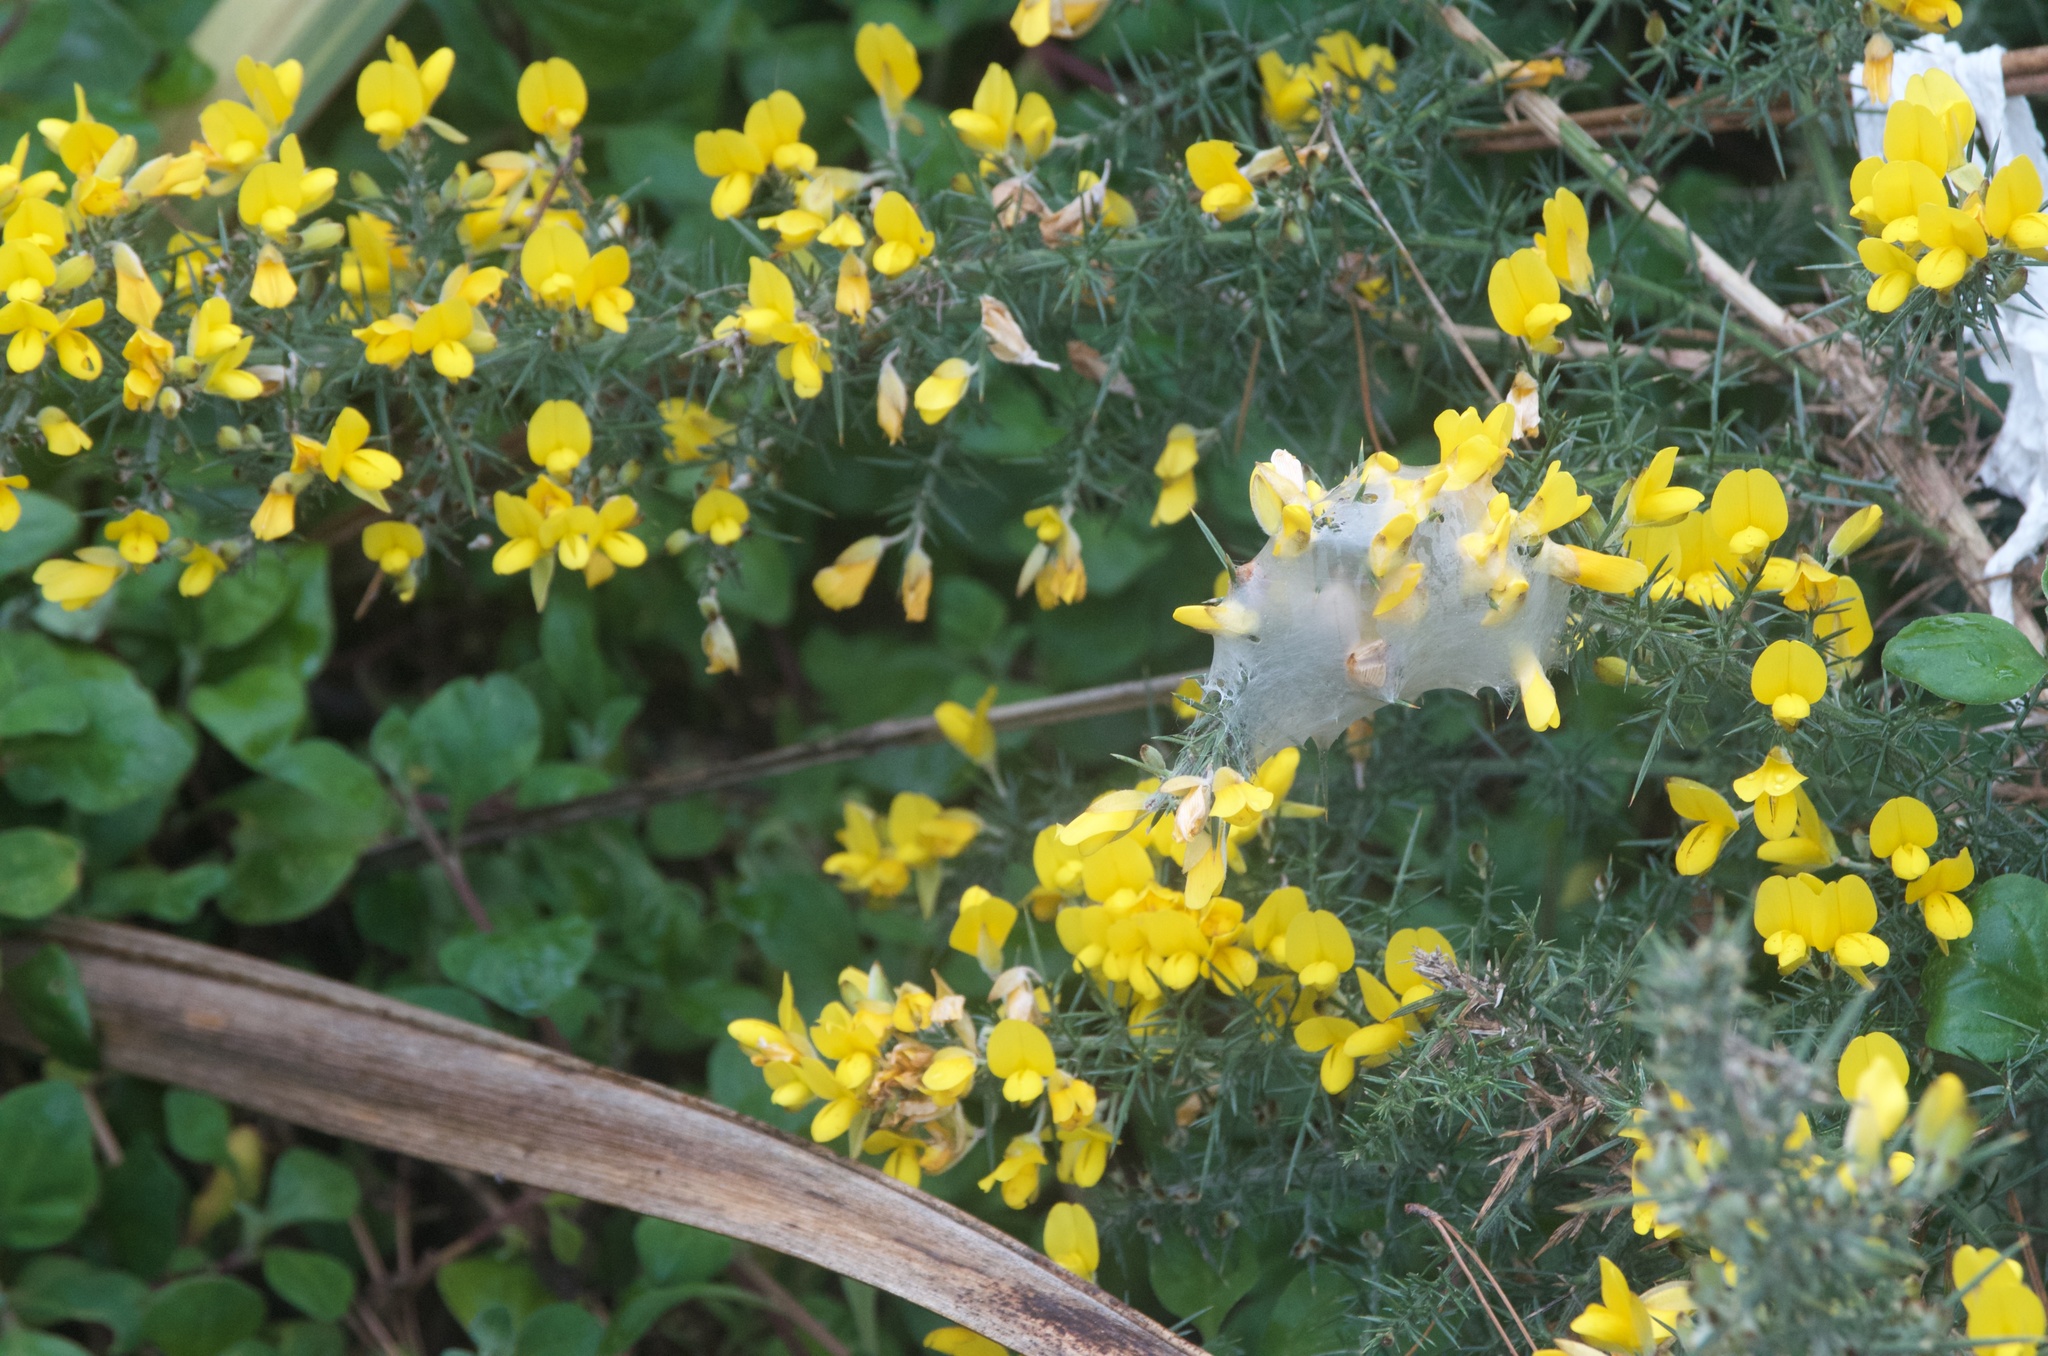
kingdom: Plantae
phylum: Tracheophyta
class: Magnoliopsida
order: Fabales
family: Fabaceae
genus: Ulex
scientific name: Ulex europaeus
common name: Common gorse
